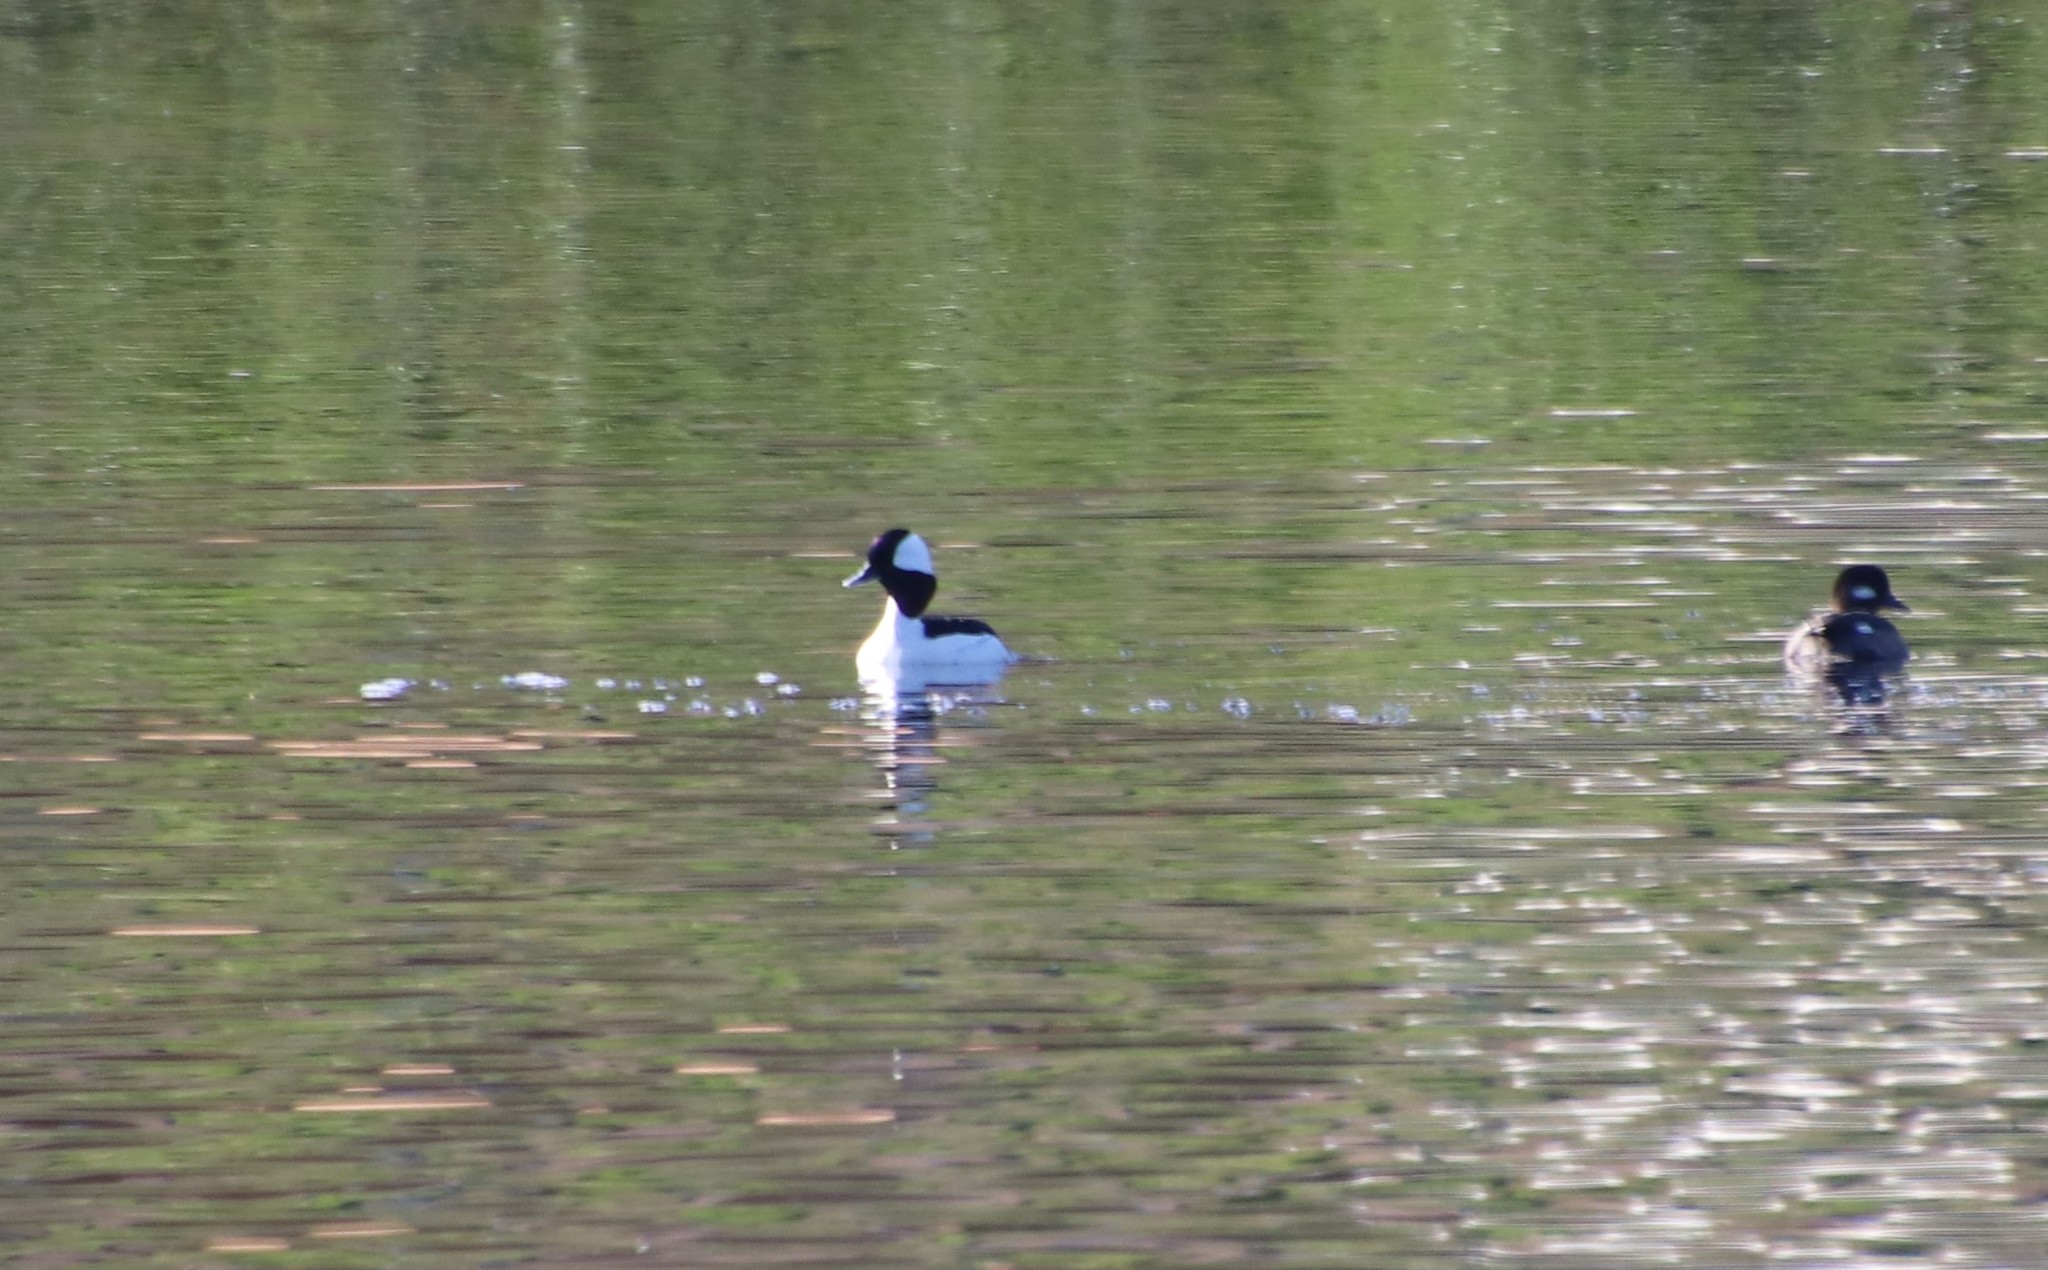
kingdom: Animalia
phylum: Chordata
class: Aves
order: Anseriformes
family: Anatidae
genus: Bucephala
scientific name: Bucephala albeola
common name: Bufflehead
